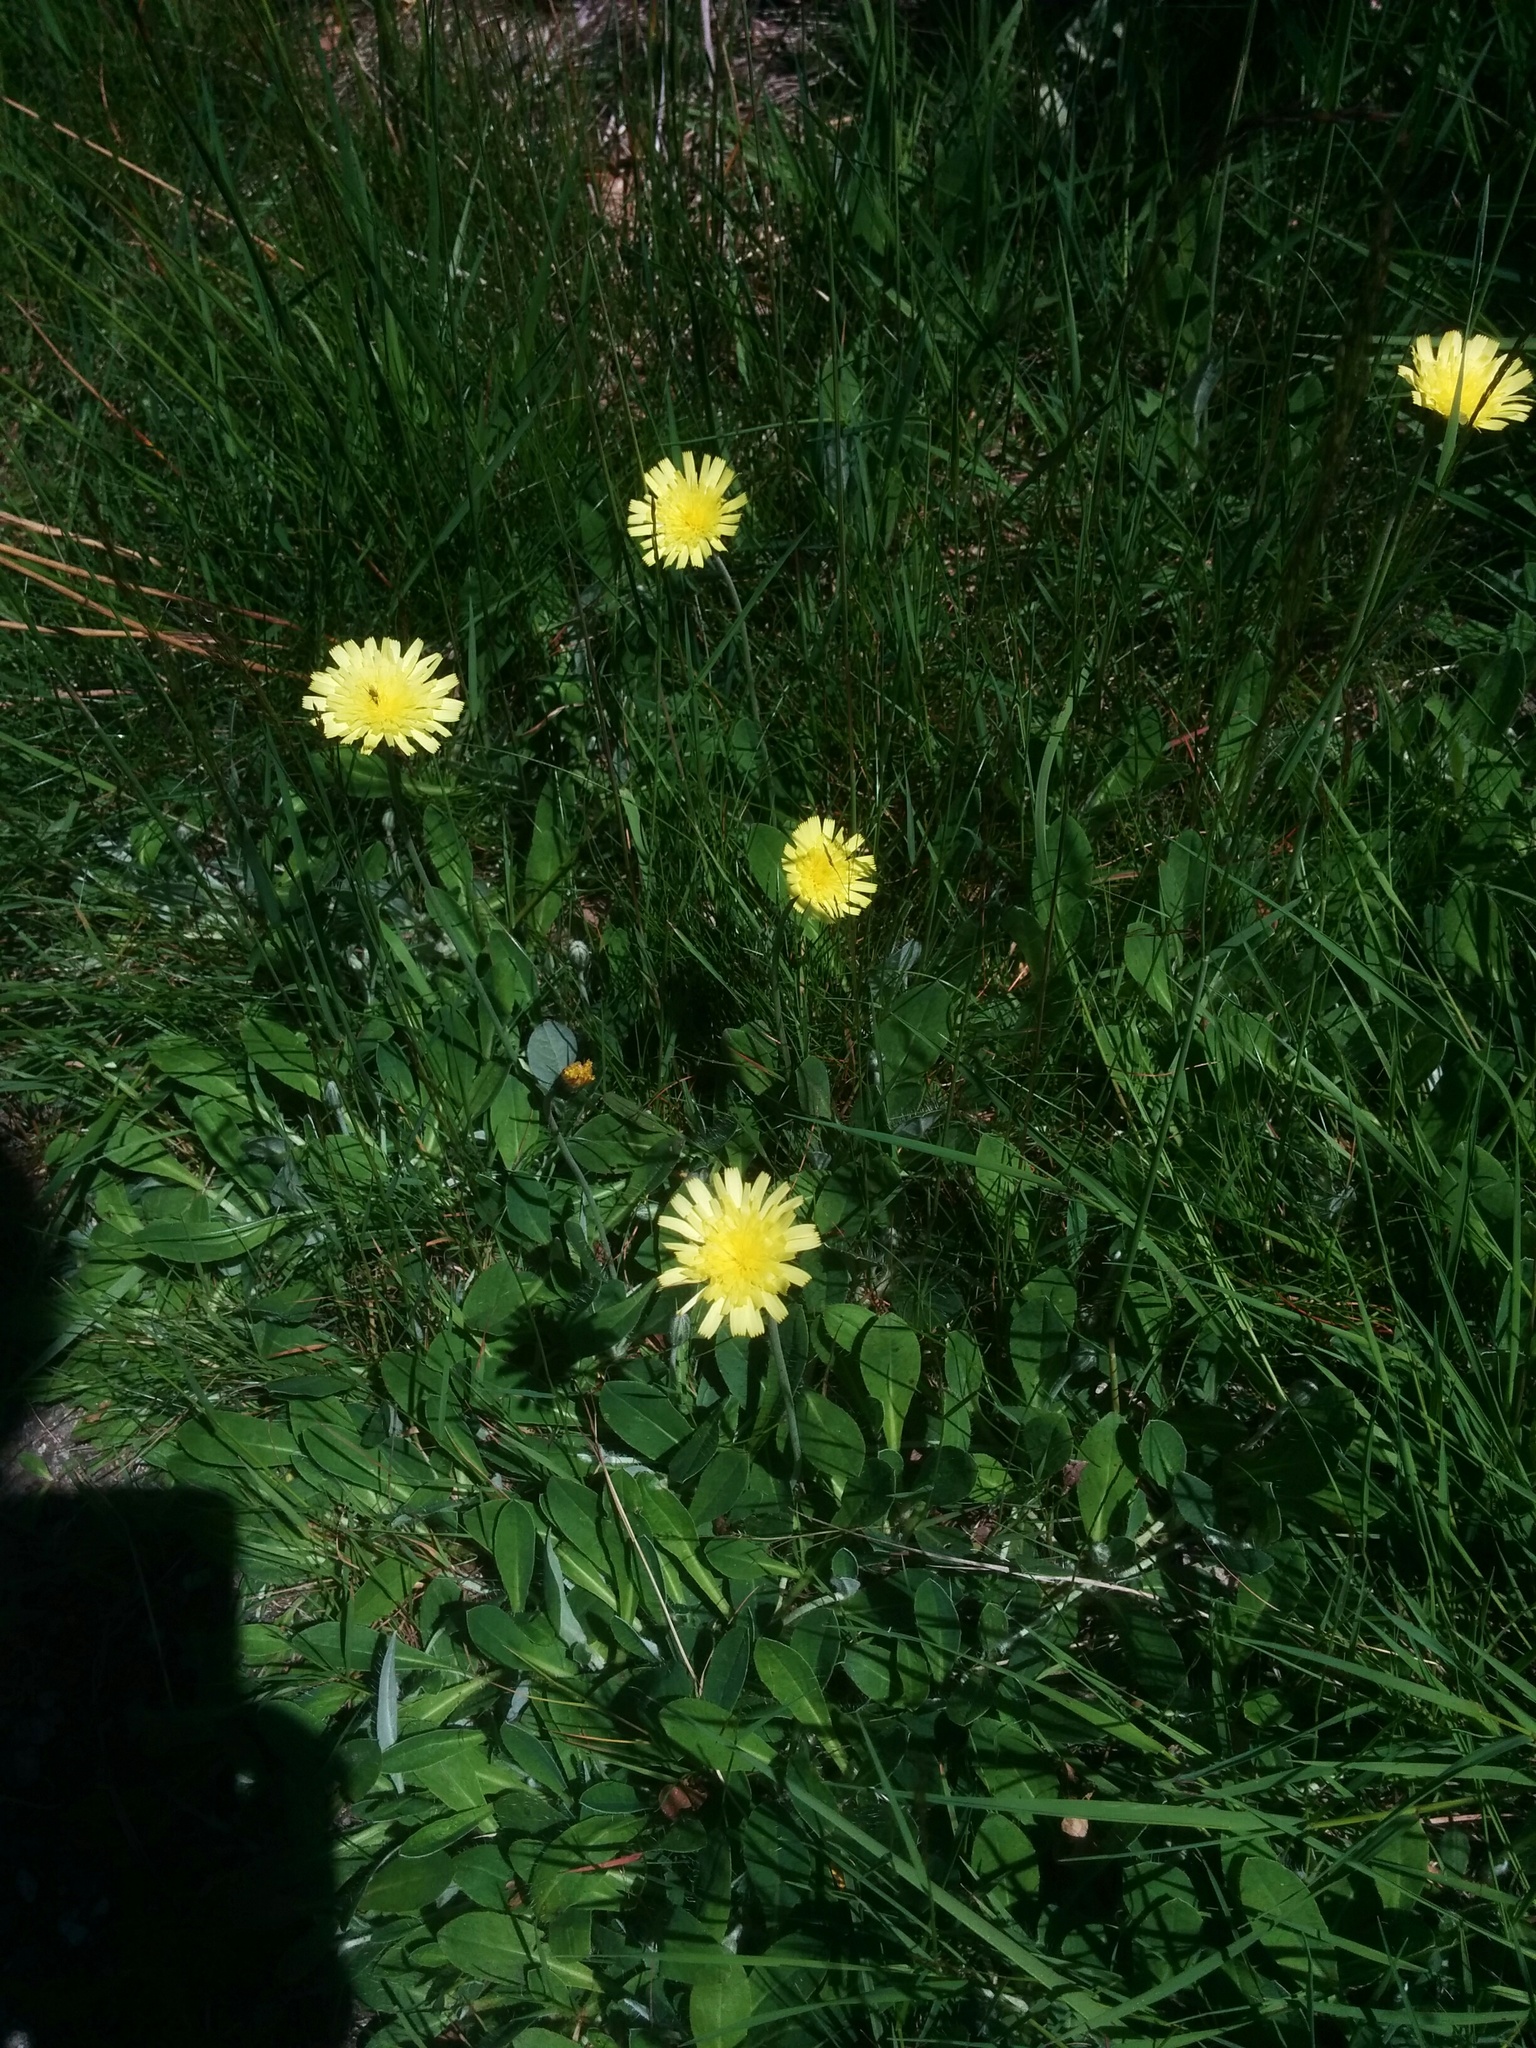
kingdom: Plantae
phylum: Tracheophyta
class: Magnoliopsida
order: Asterales
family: Asteraceae
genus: Pilosella
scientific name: Pilosella officinarum
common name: Mouse-ear hawkweed
